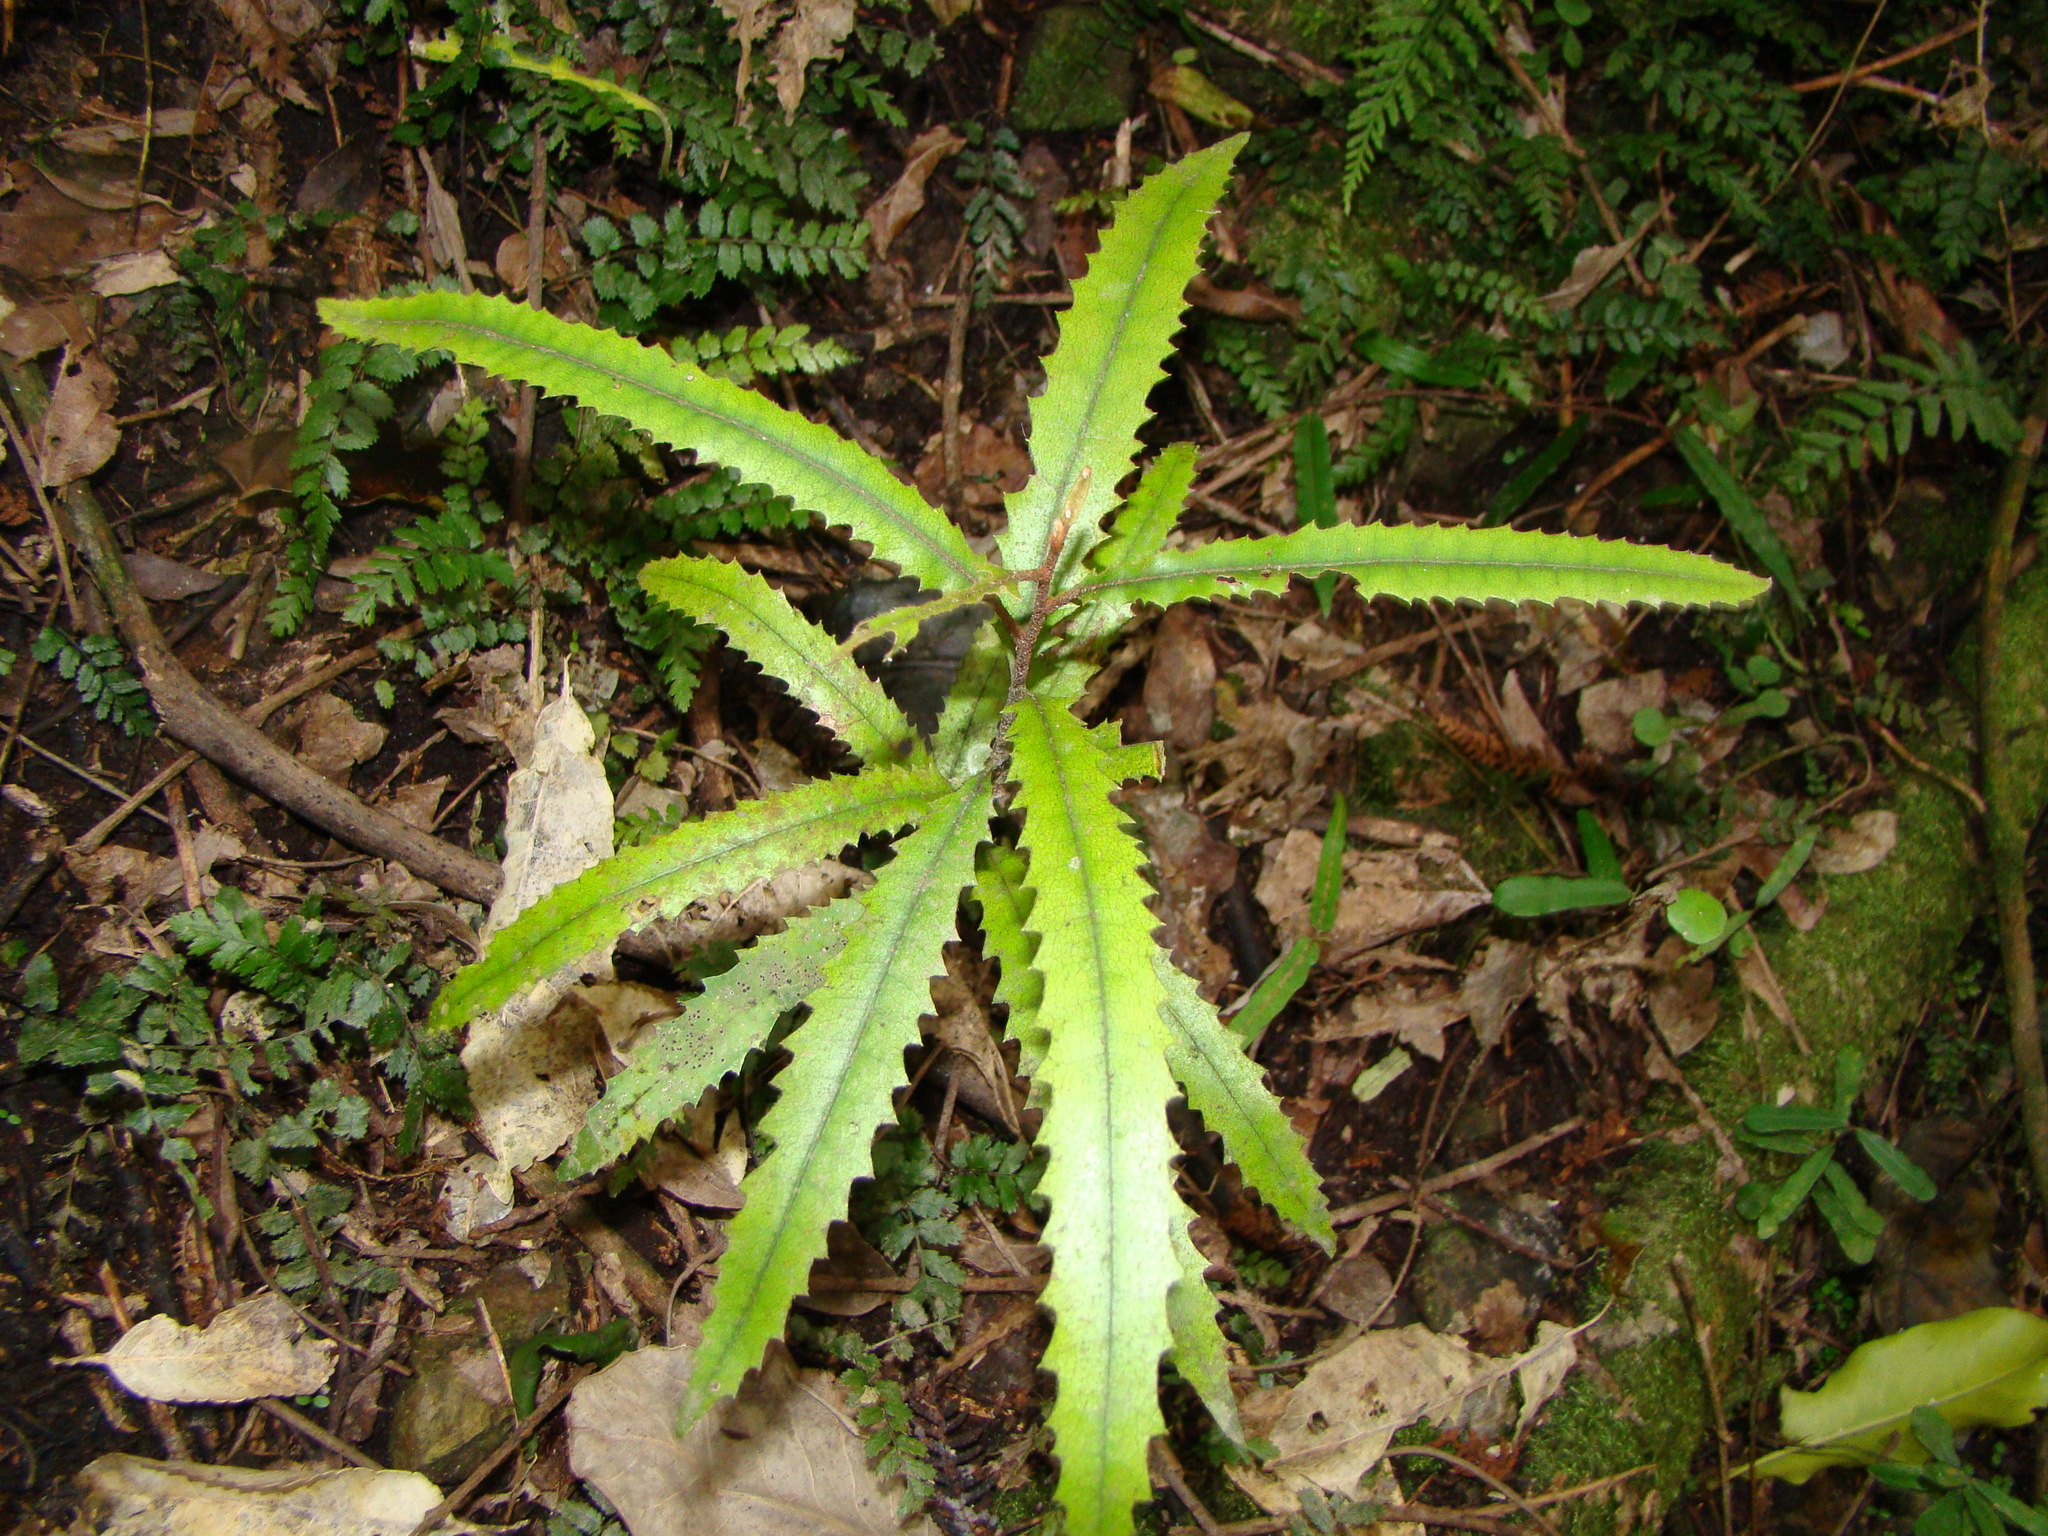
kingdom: Plantae
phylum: Tracheophyta
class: Magnoliopsida
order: Proteales
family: Proteaceae
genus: Knightia
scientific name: Knightia excelsa
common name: New zealand-honeysuckle
